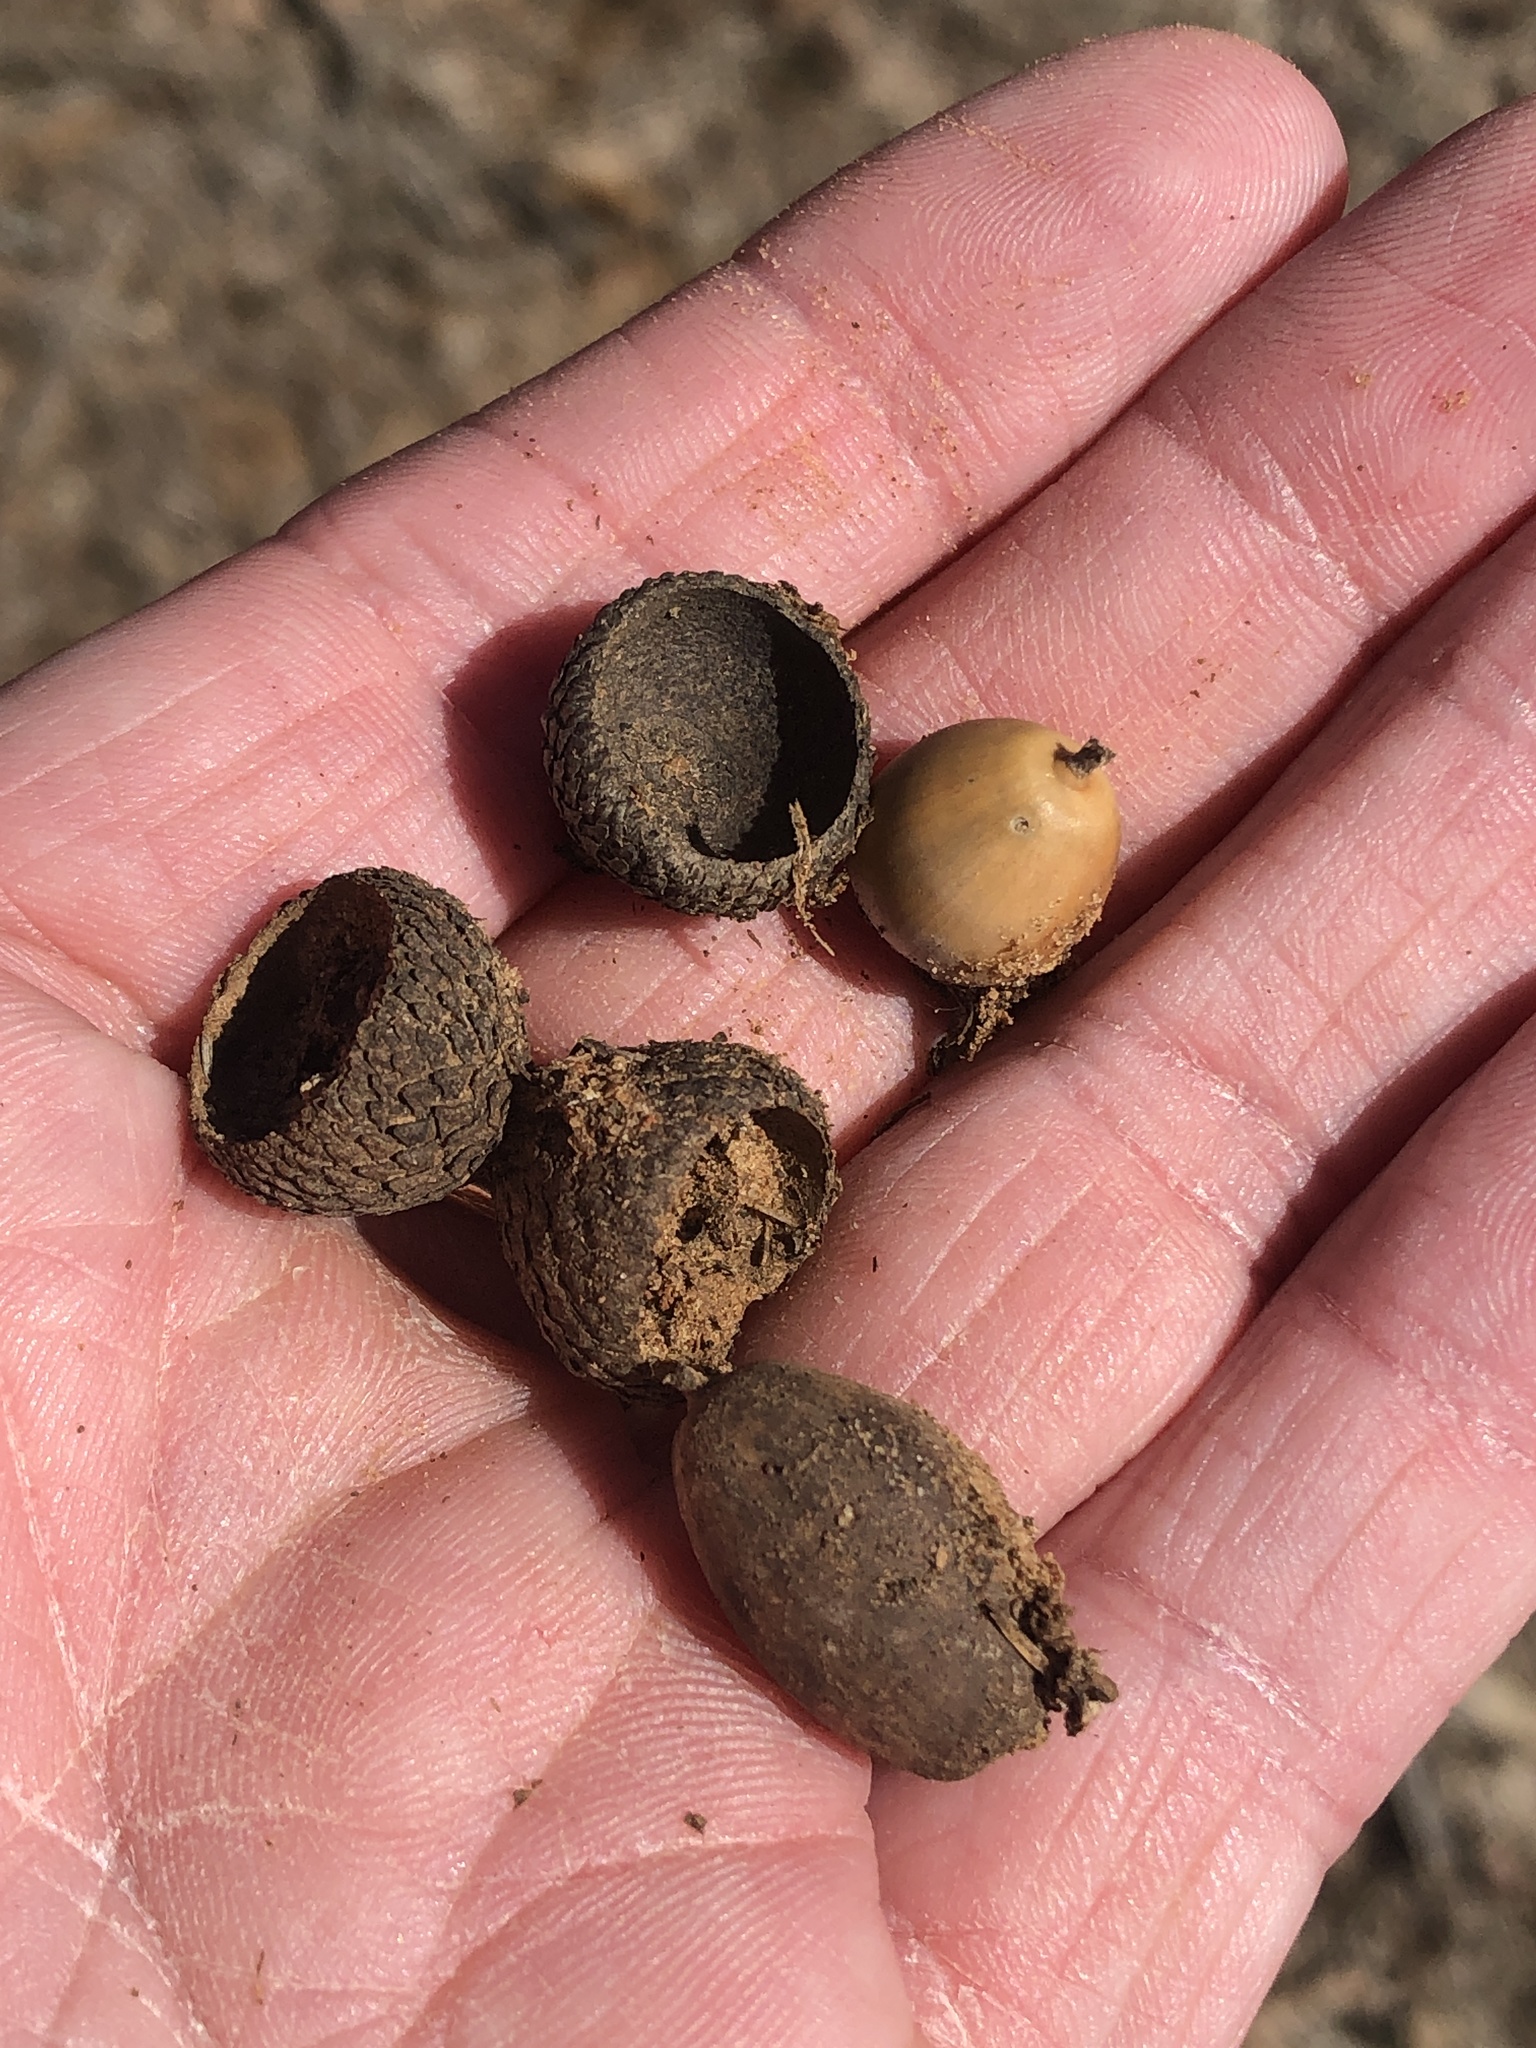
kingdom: Plantae
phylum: Tracheophyta
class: Magnoliopsida
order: Fagales
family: Fagaceae
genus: Quercus
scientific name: Quercus stellata
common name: Post oak
